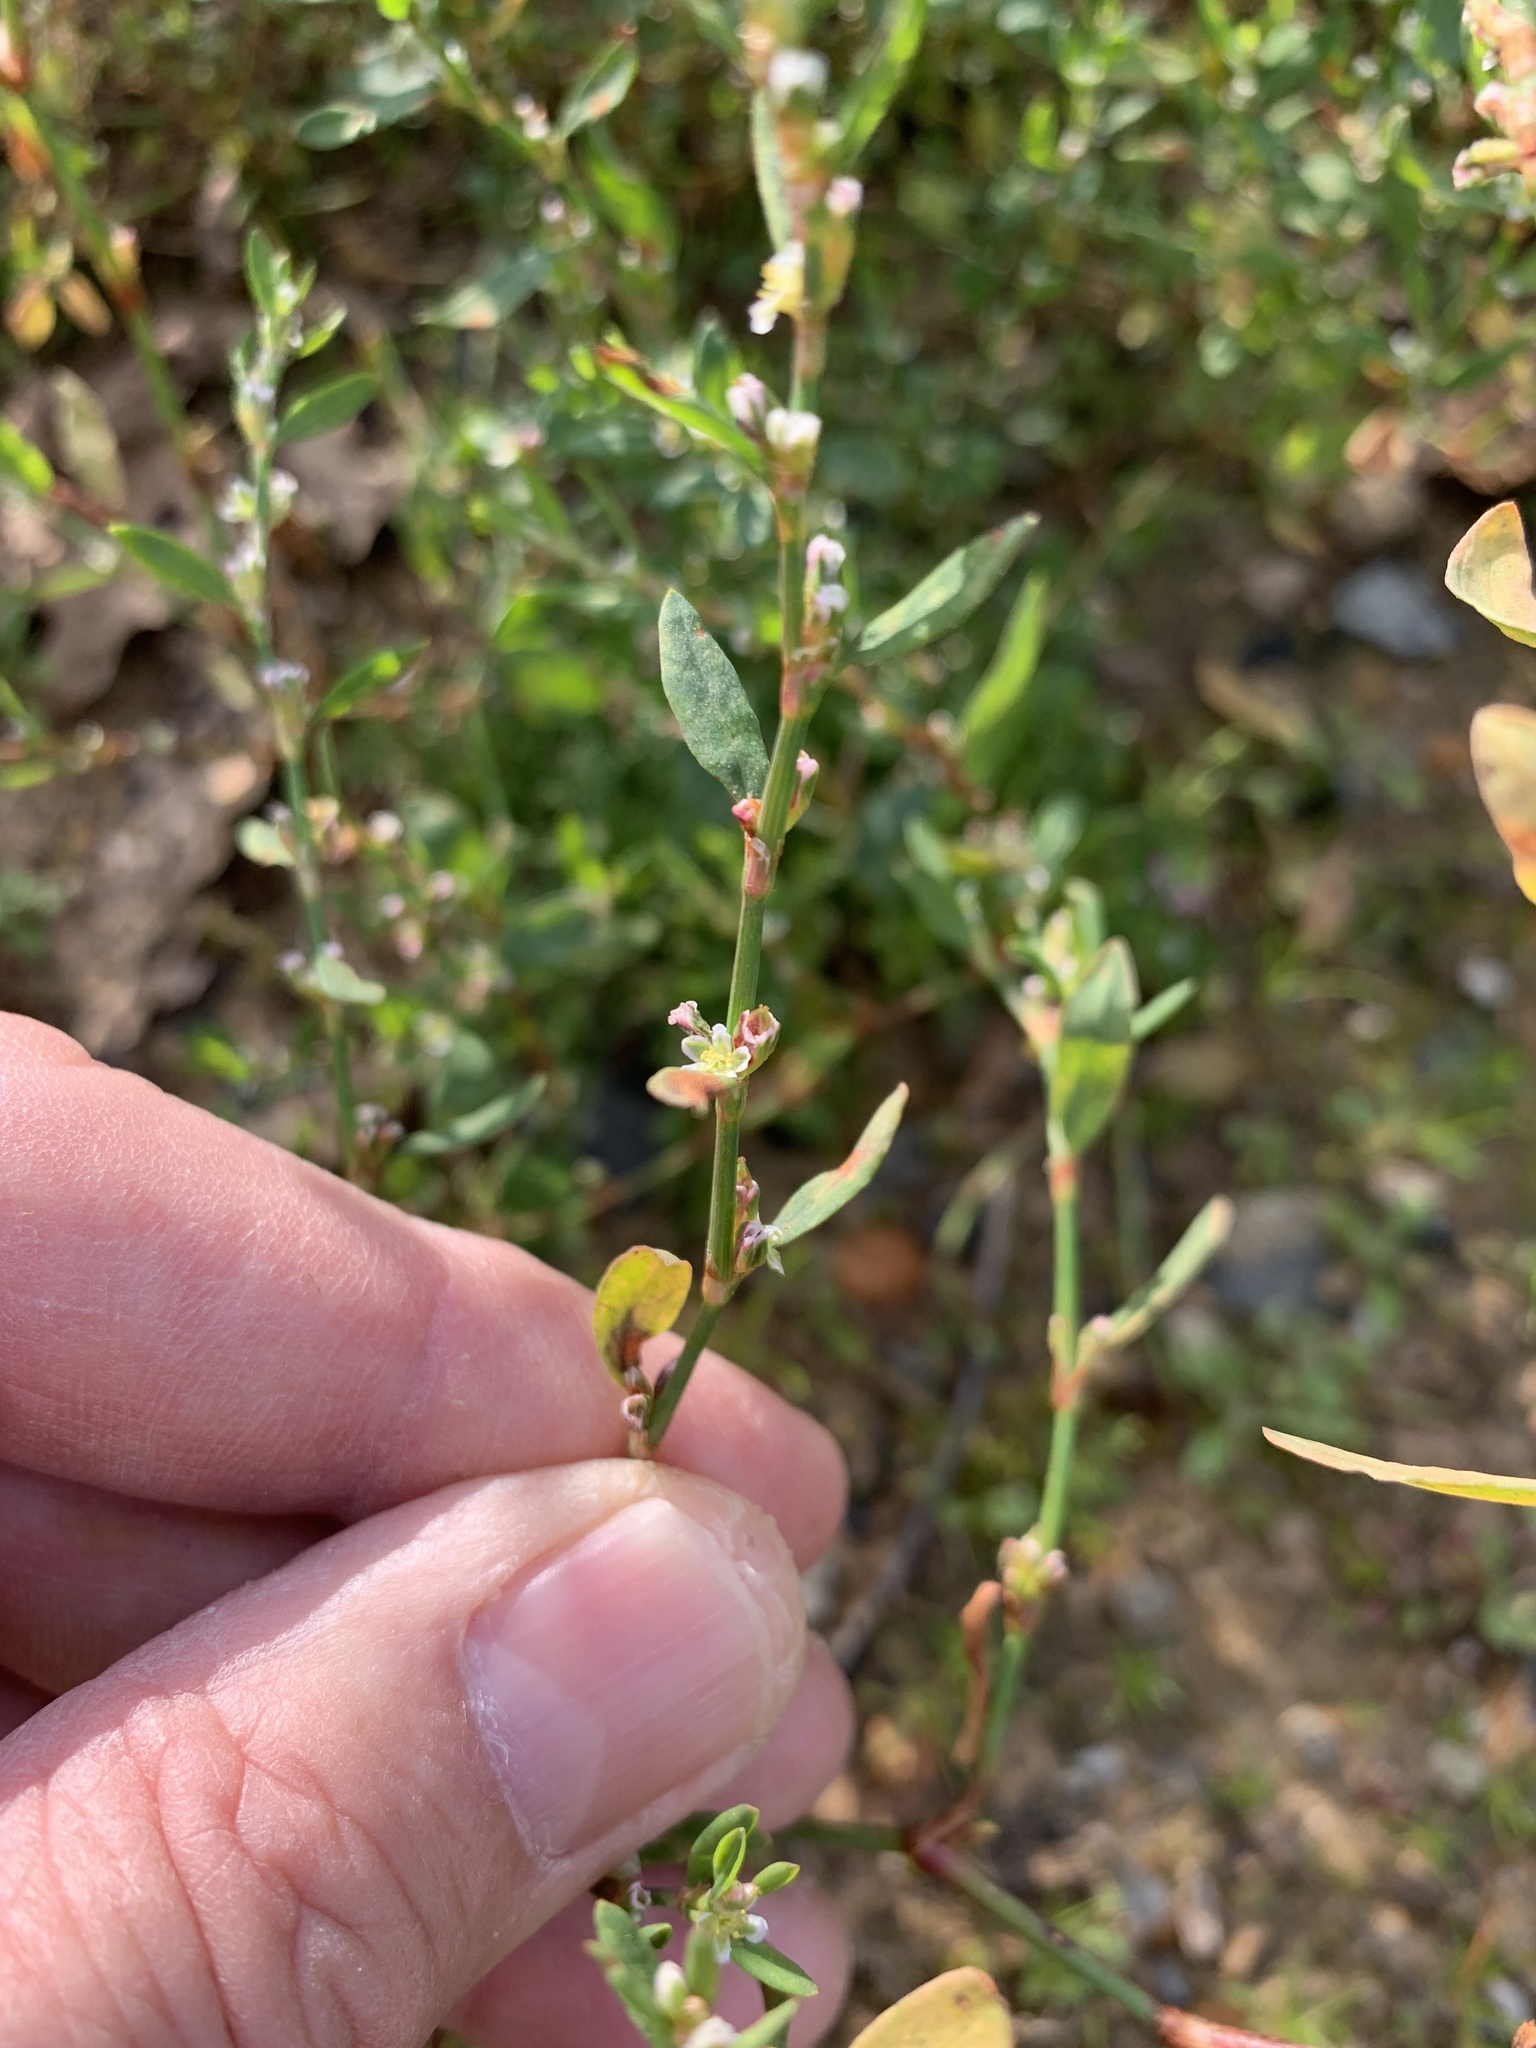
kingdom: Plantae
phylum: Tracheophyta
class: Magnoliopsida
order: Caryophyllales
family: Polygonaceae
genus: Polygonum
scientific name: Polygonum aviculare
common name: Prostrate knotweed
